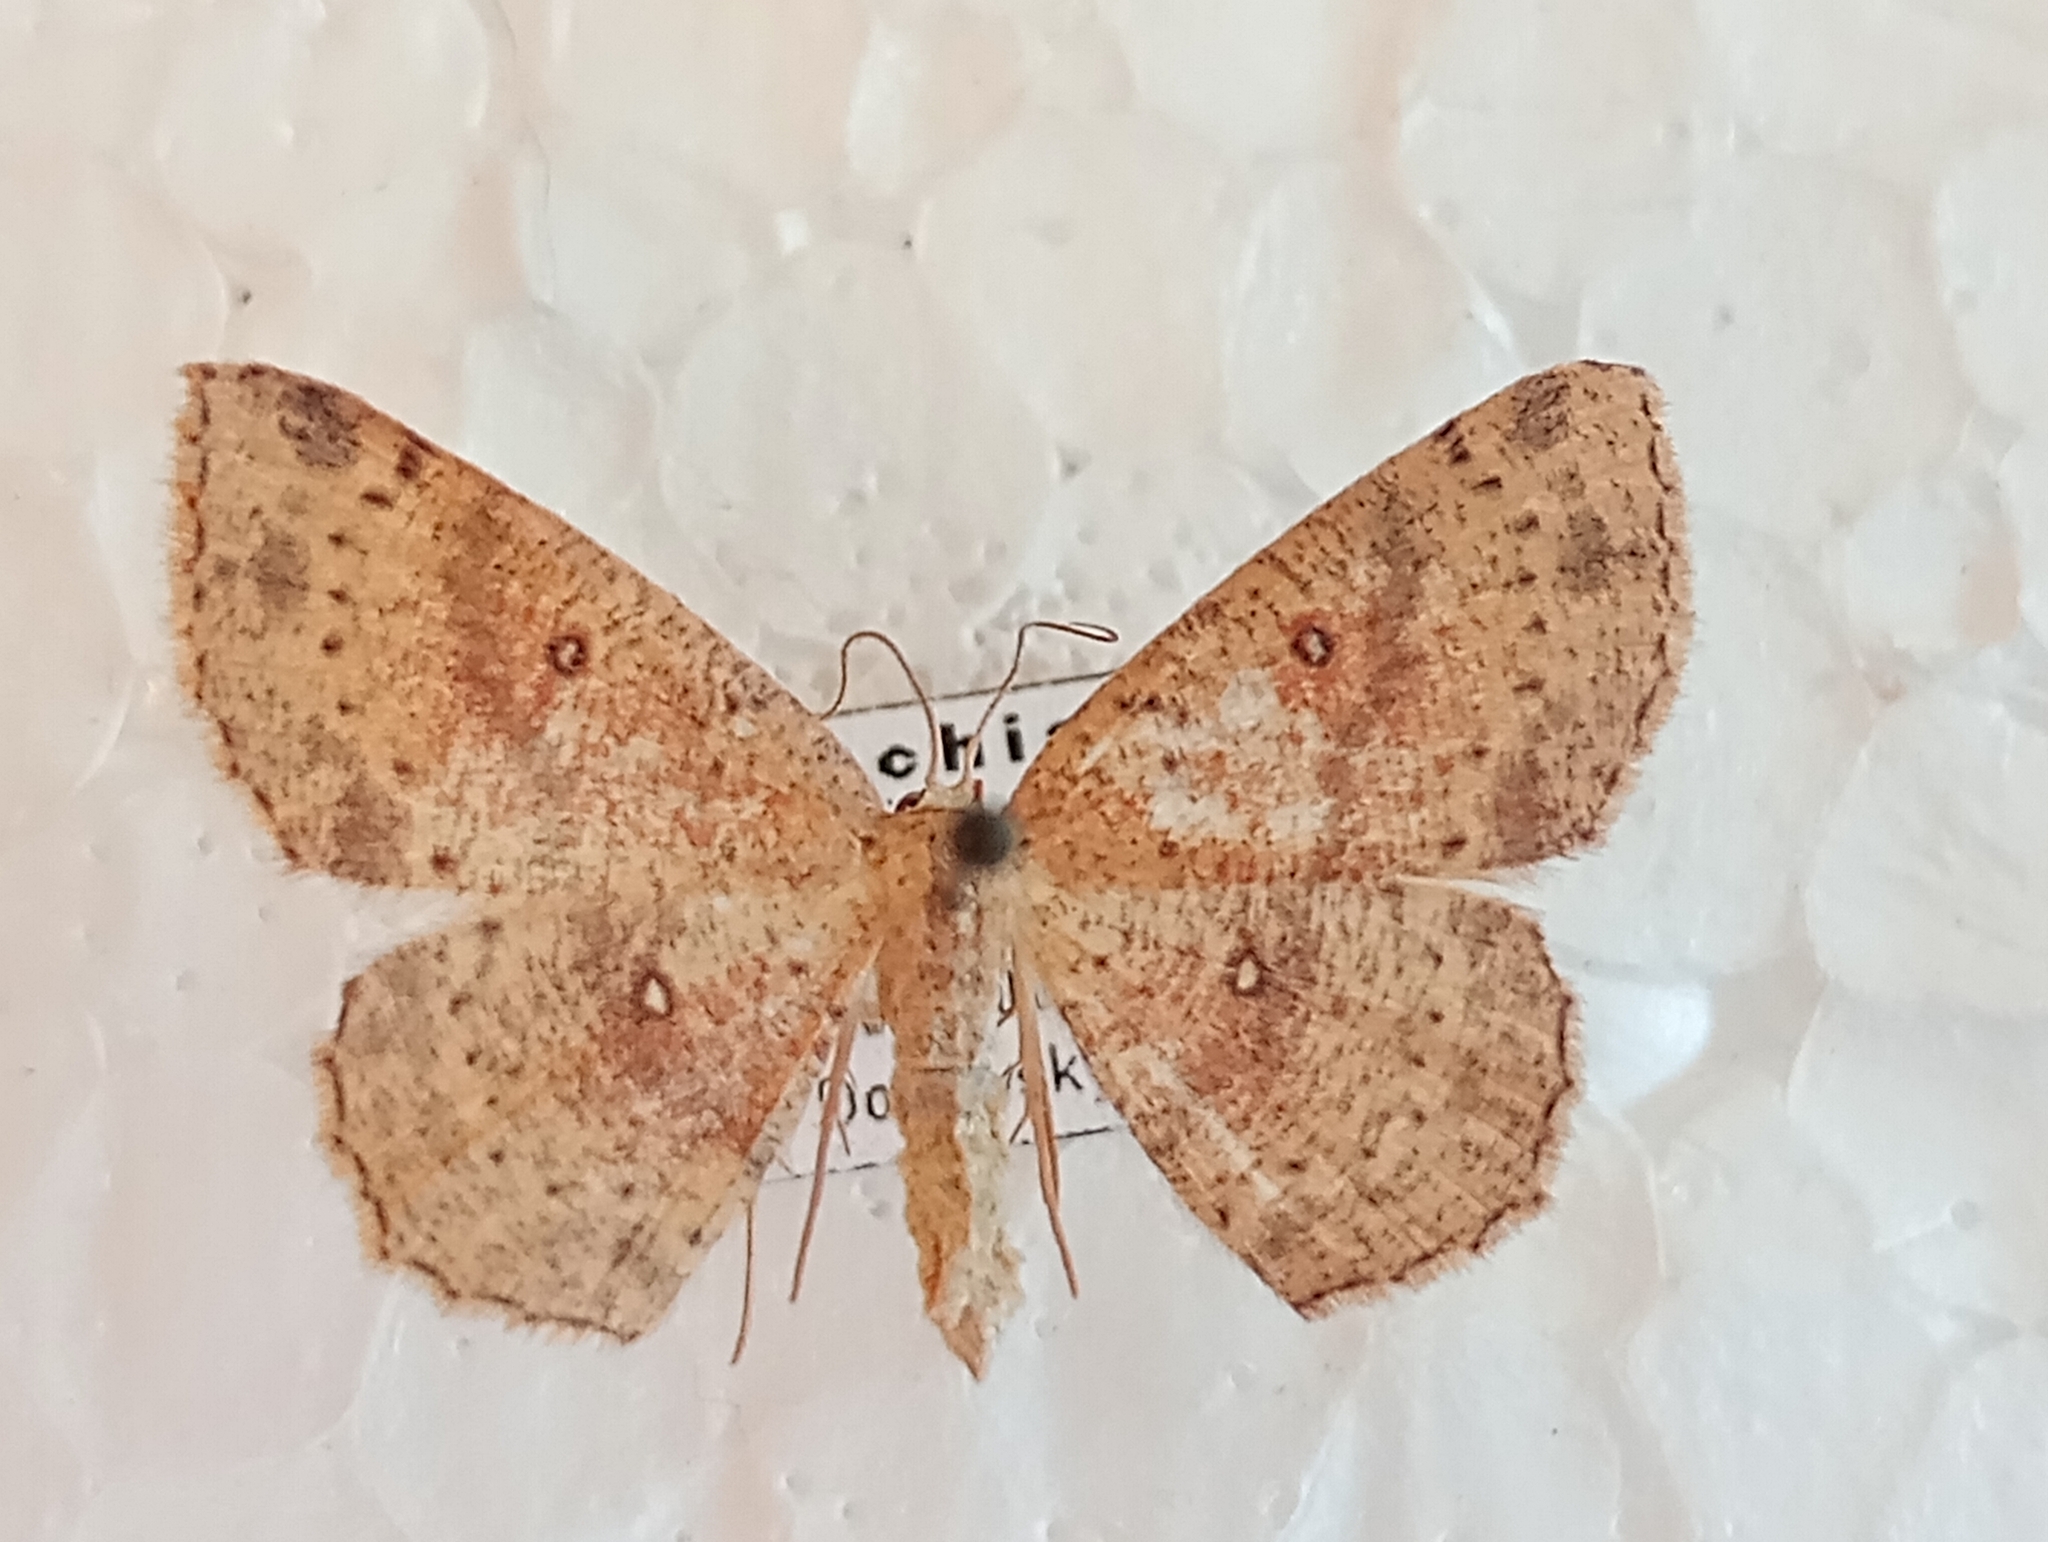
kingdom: Animalia
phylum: Arthropoda
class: Insecta
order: Lepidoptera
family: Geometridae
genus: Cyclophora
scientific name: Cyclophora porata
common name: False mocha
